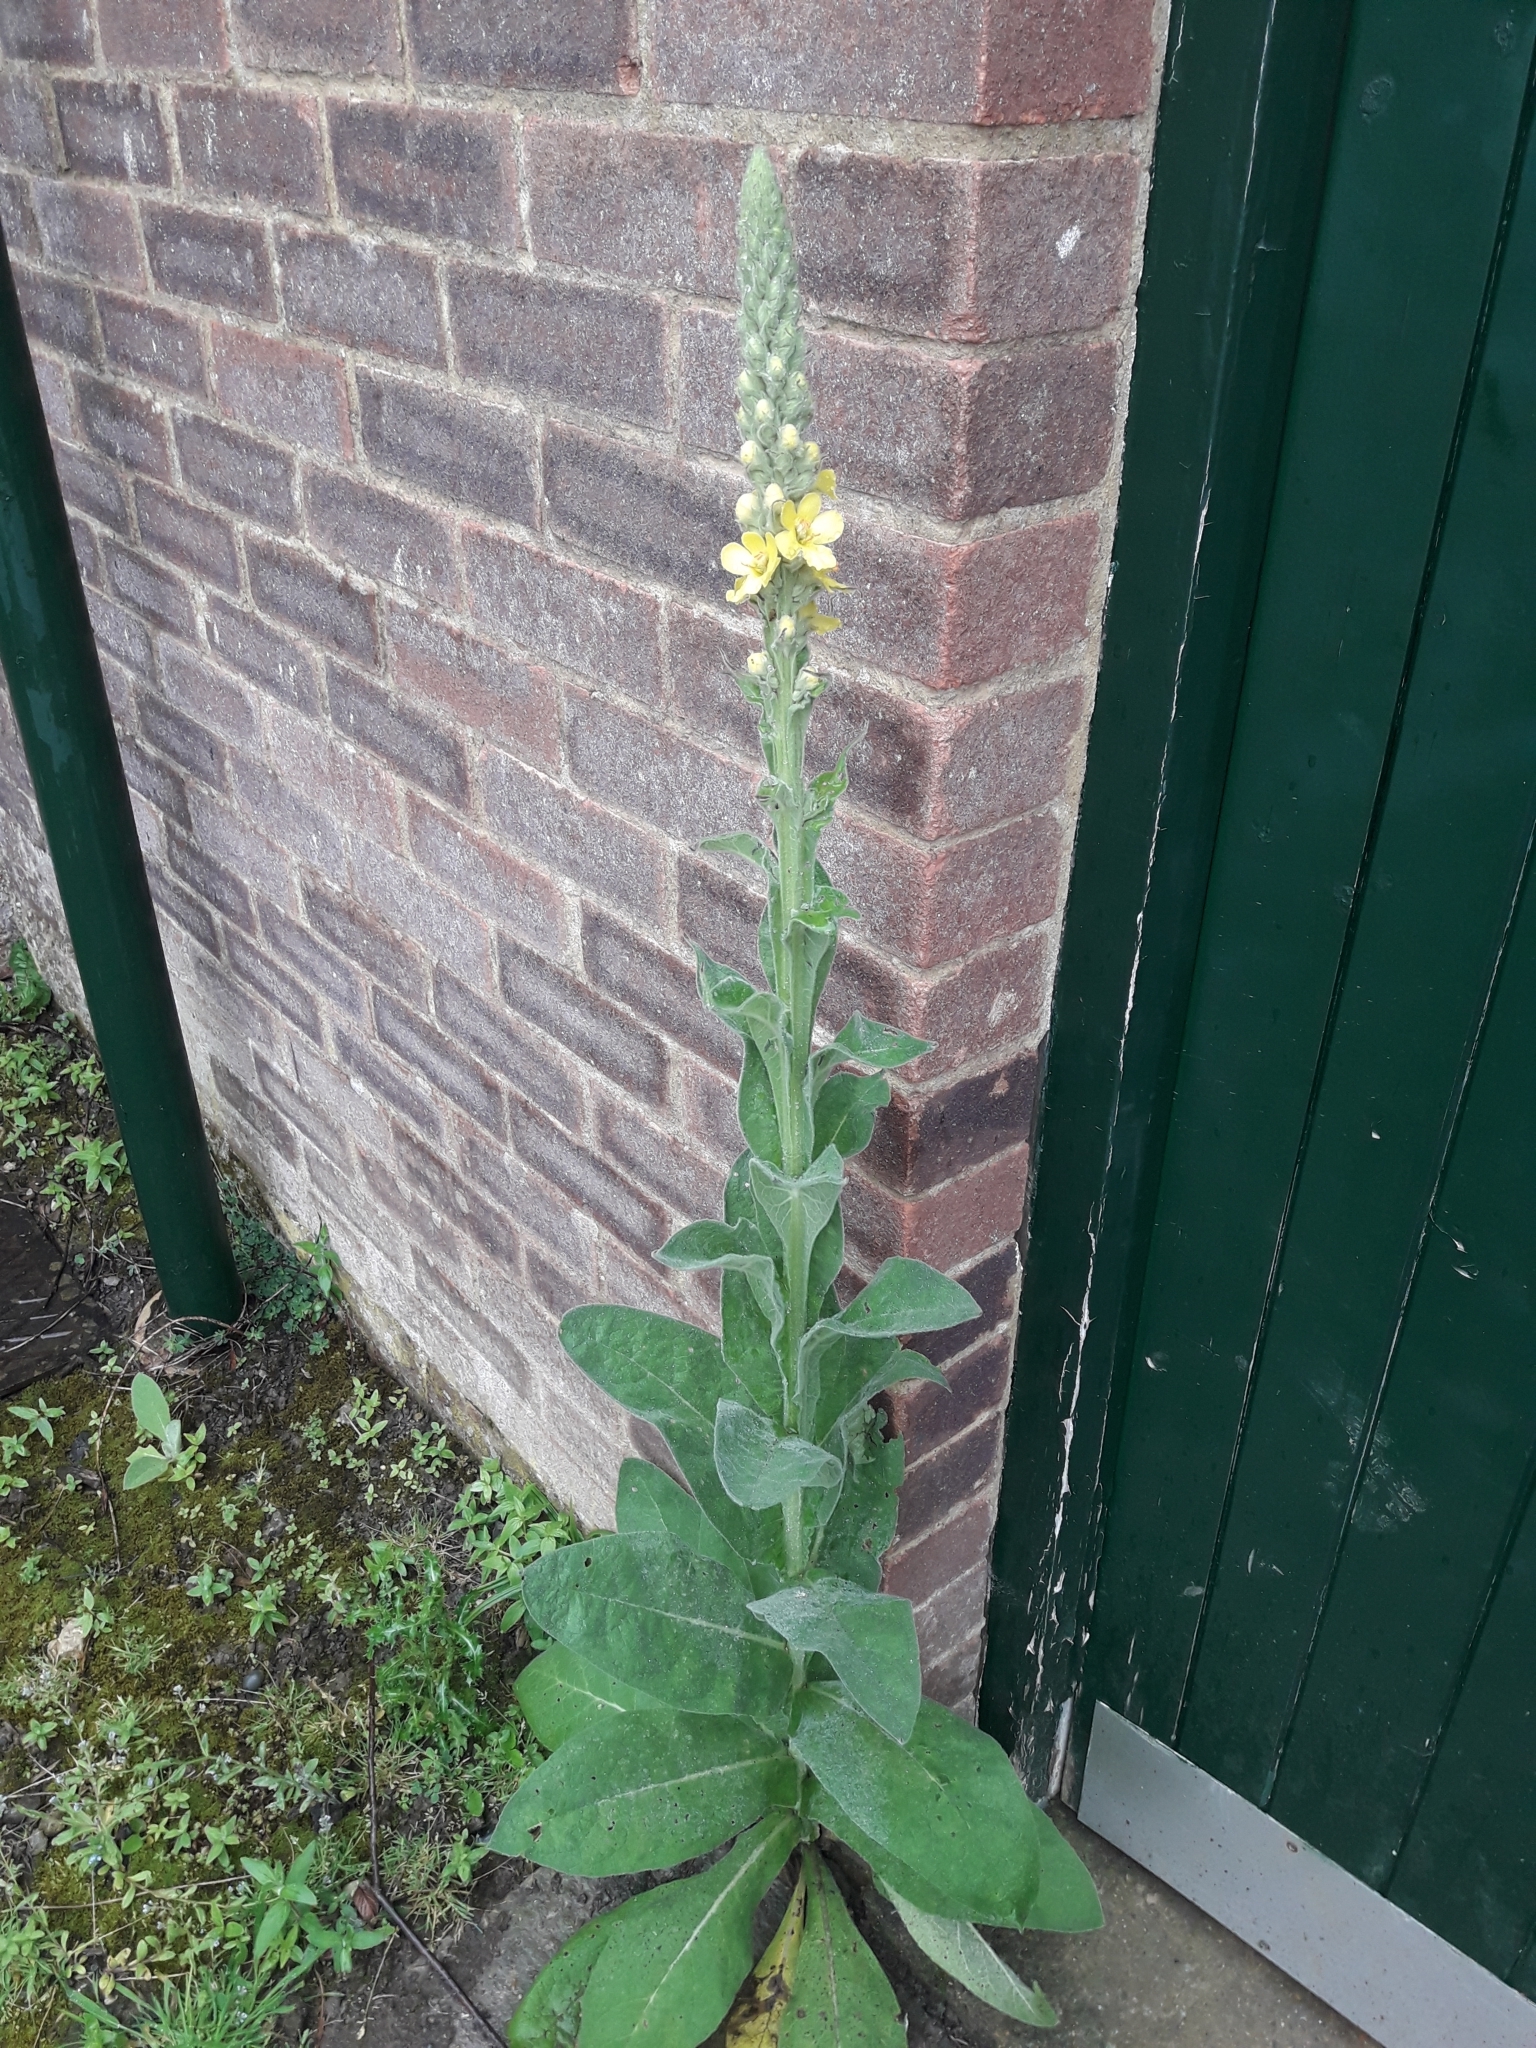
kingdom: Plantae
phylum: Tracheophyta
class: Magnoliopsida
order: Lamiales
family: Scrophulariaceae
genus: Verbascum
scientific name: Verbascum thapsus
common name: Common mullein
